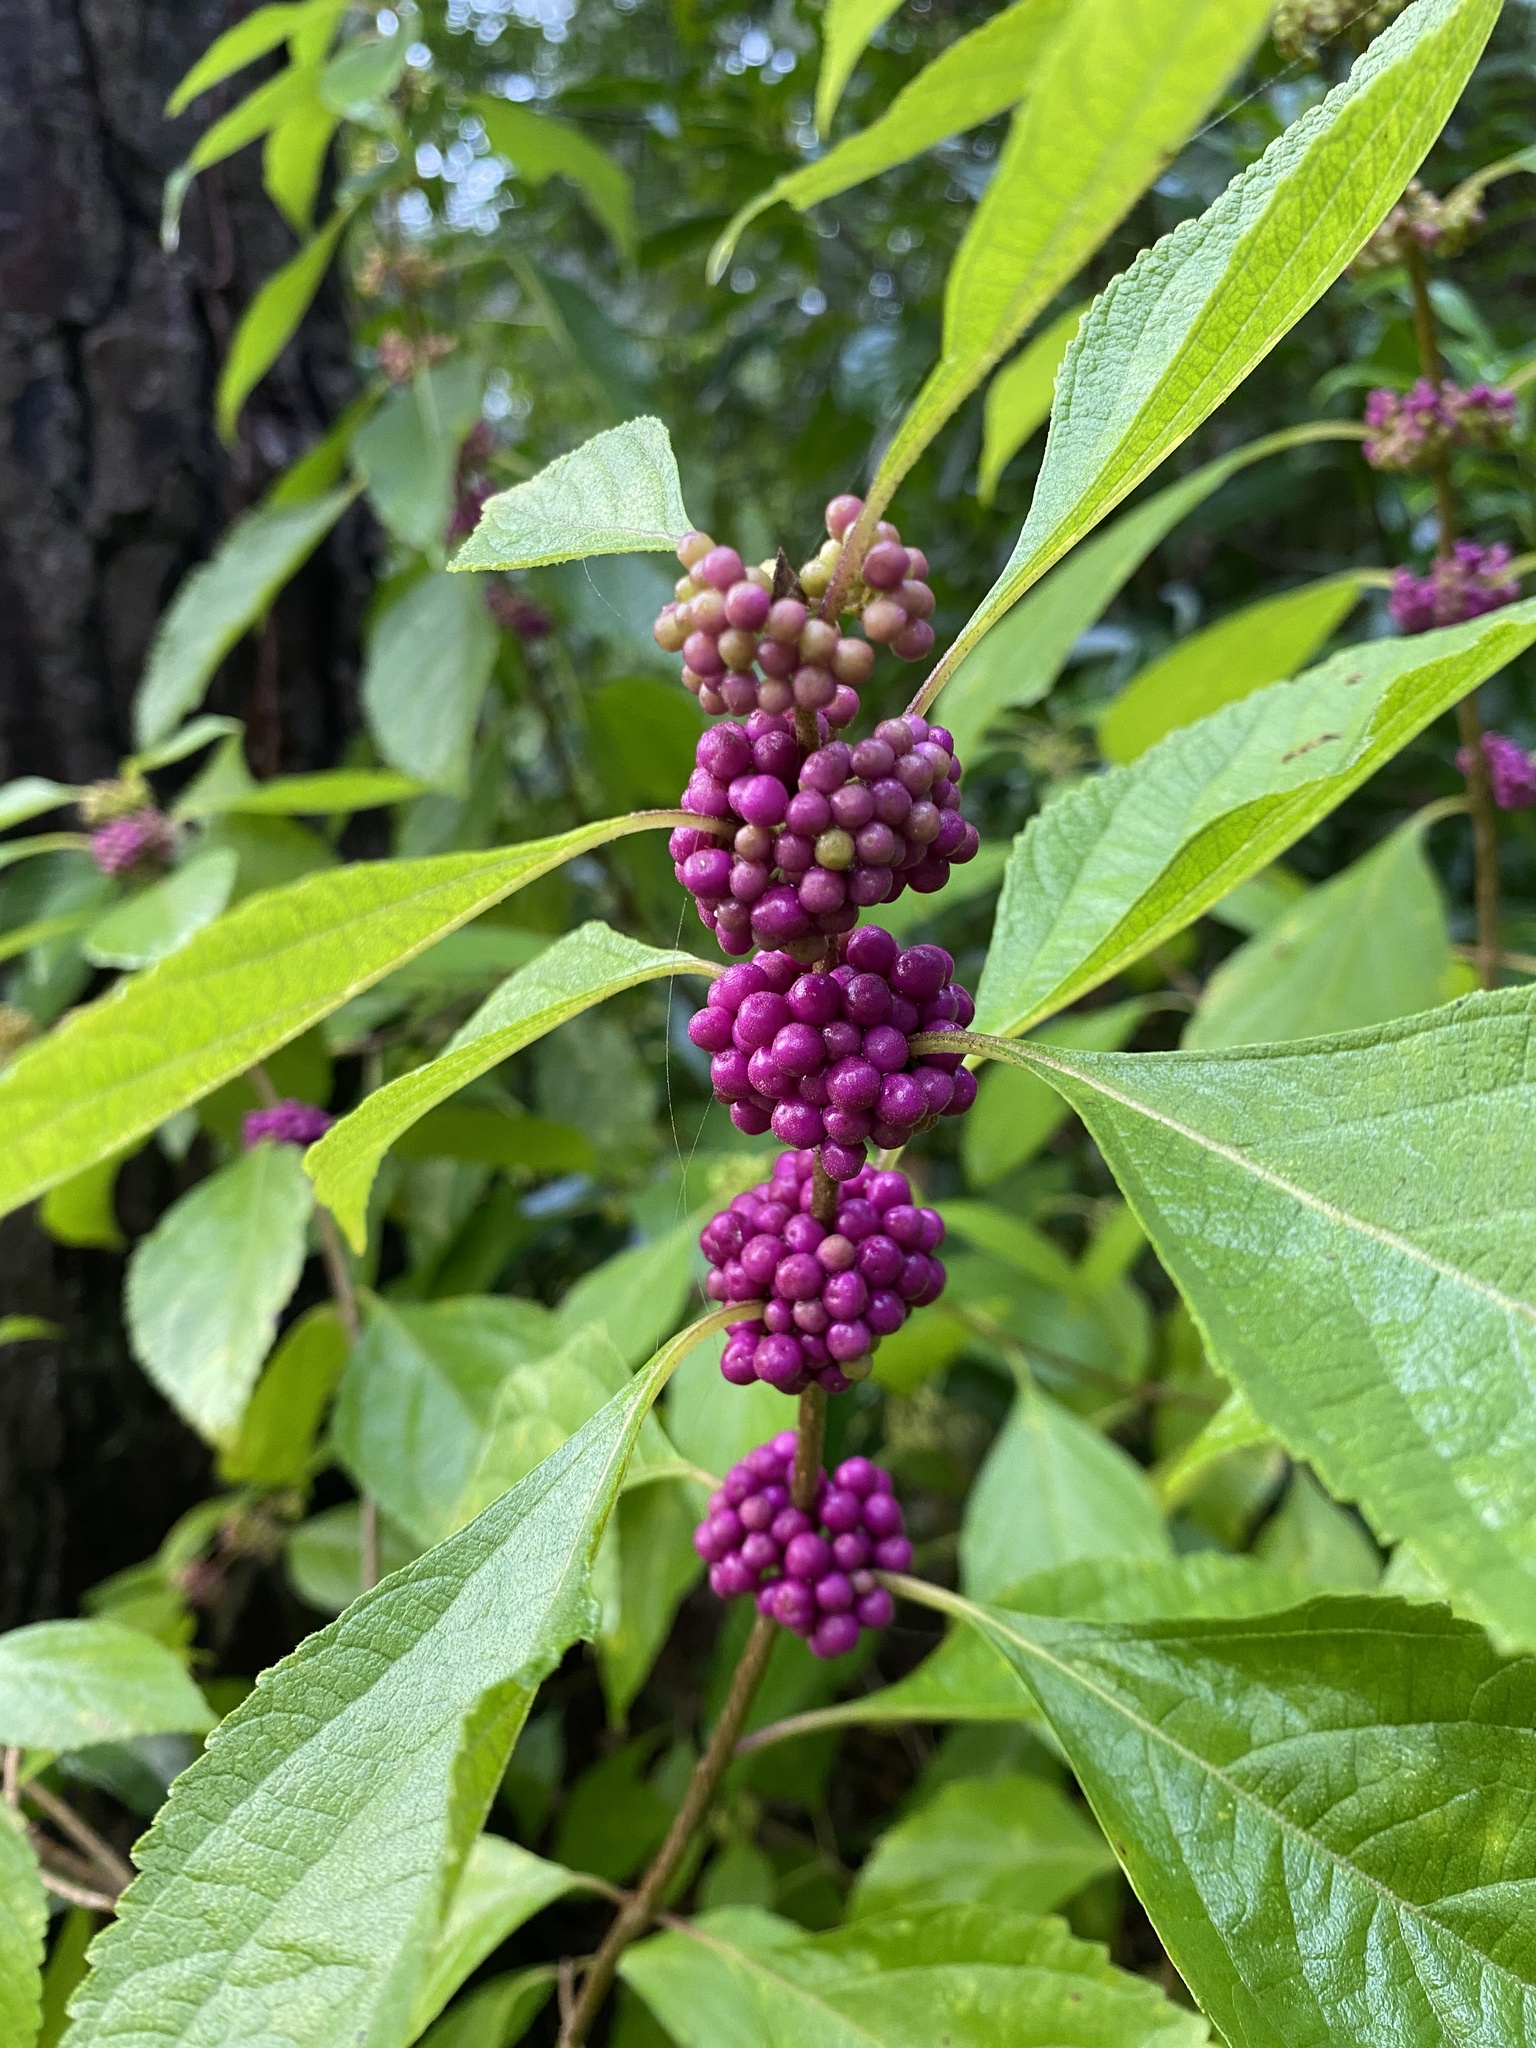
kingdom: Plantae
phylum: Tracheophyta
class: Magnoliopsida
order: Lamiales
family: Lamiaceae
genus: Callicarpa
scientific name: Callicarpa americana
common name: American beautyberry
